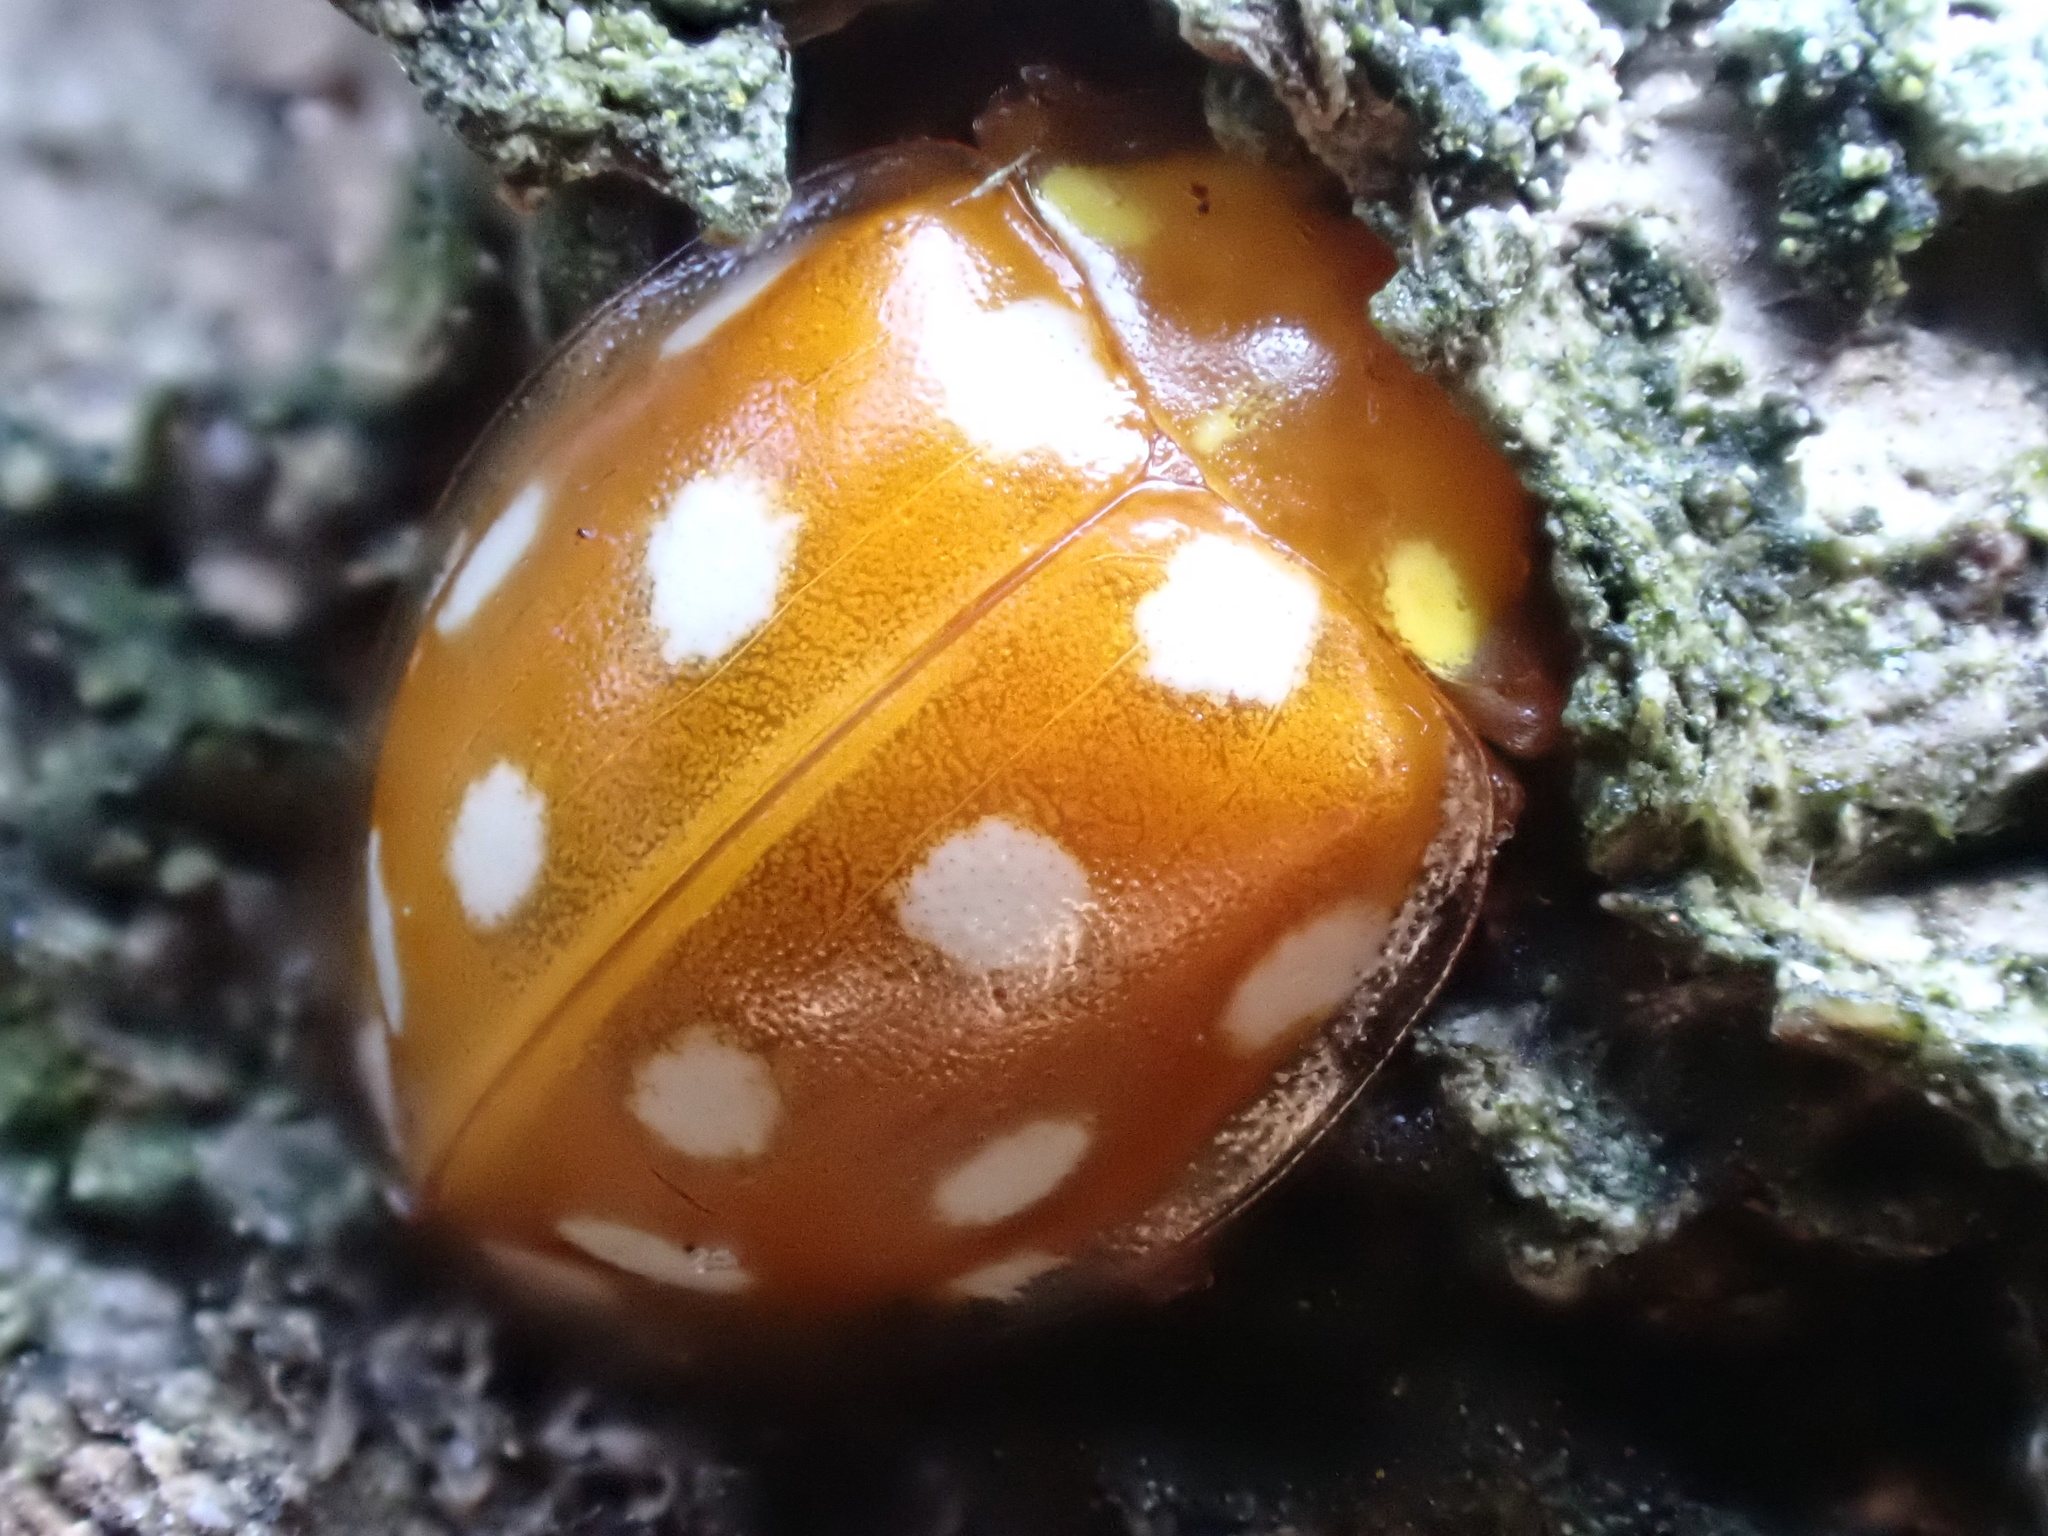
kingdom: Animalia
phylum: Arthropoda
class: Insecta
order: Coleoptera
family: Coccinellidae
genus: Halyzia
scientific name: Halyzia sedecimguttata
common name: Orange ladybird
